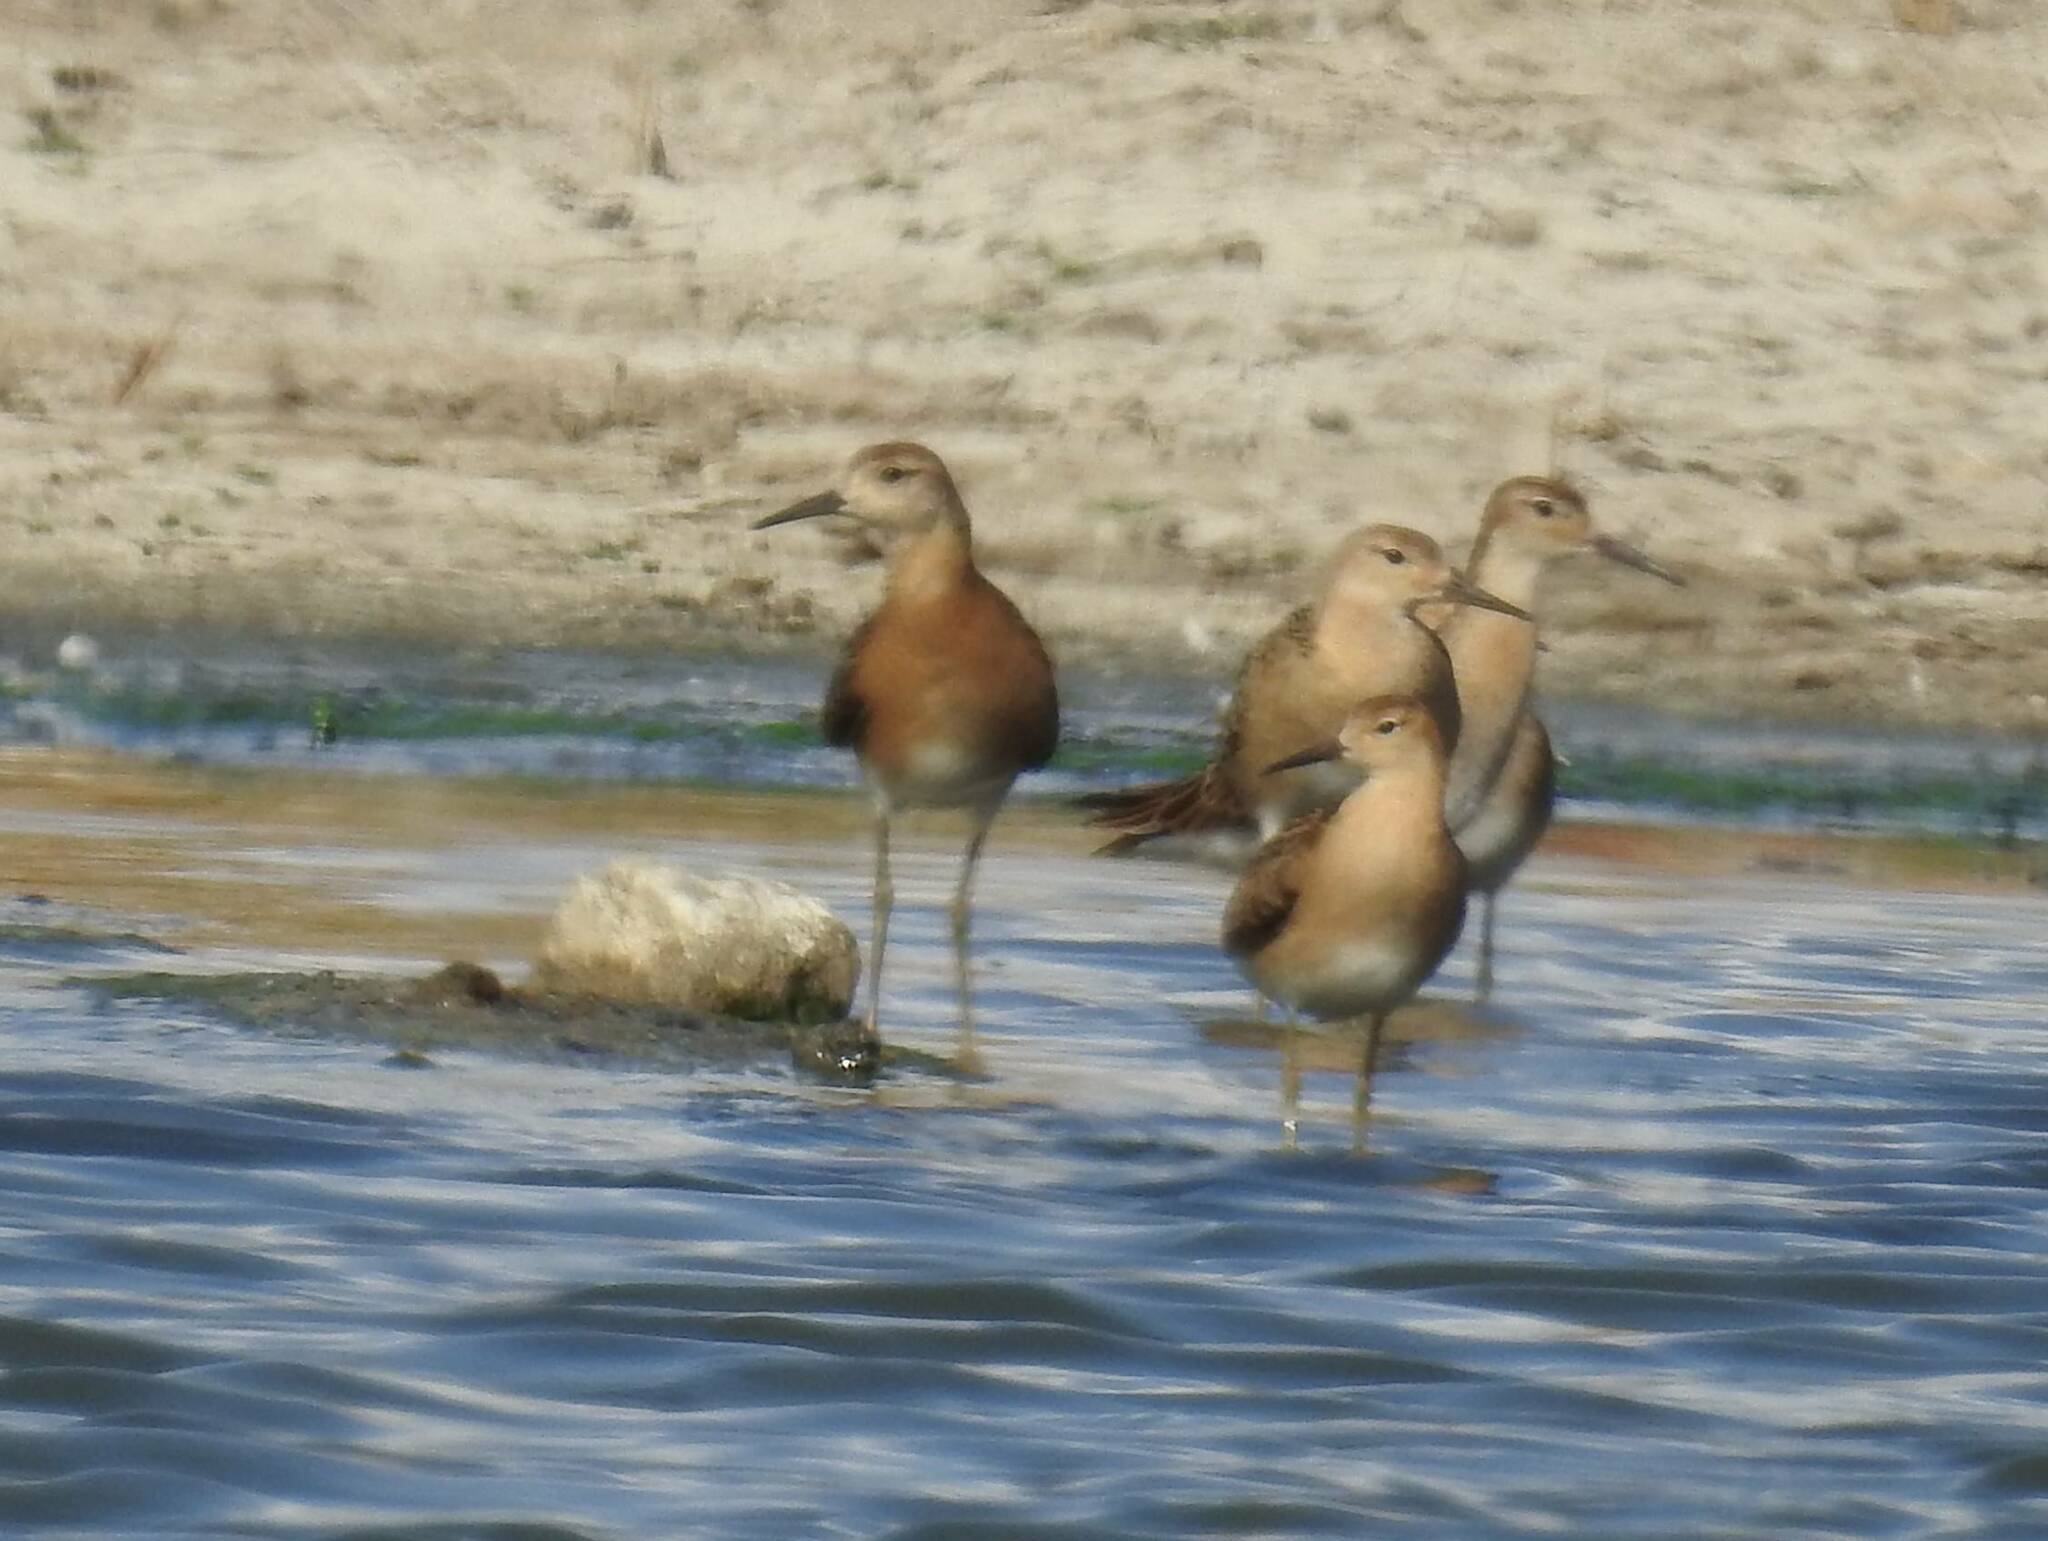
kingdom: Animalia
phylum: Chordata
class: Aves
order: Charadriiformes
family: Scolopacidae
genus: Calidris
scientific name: Calidris pugnax
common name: Ruff
